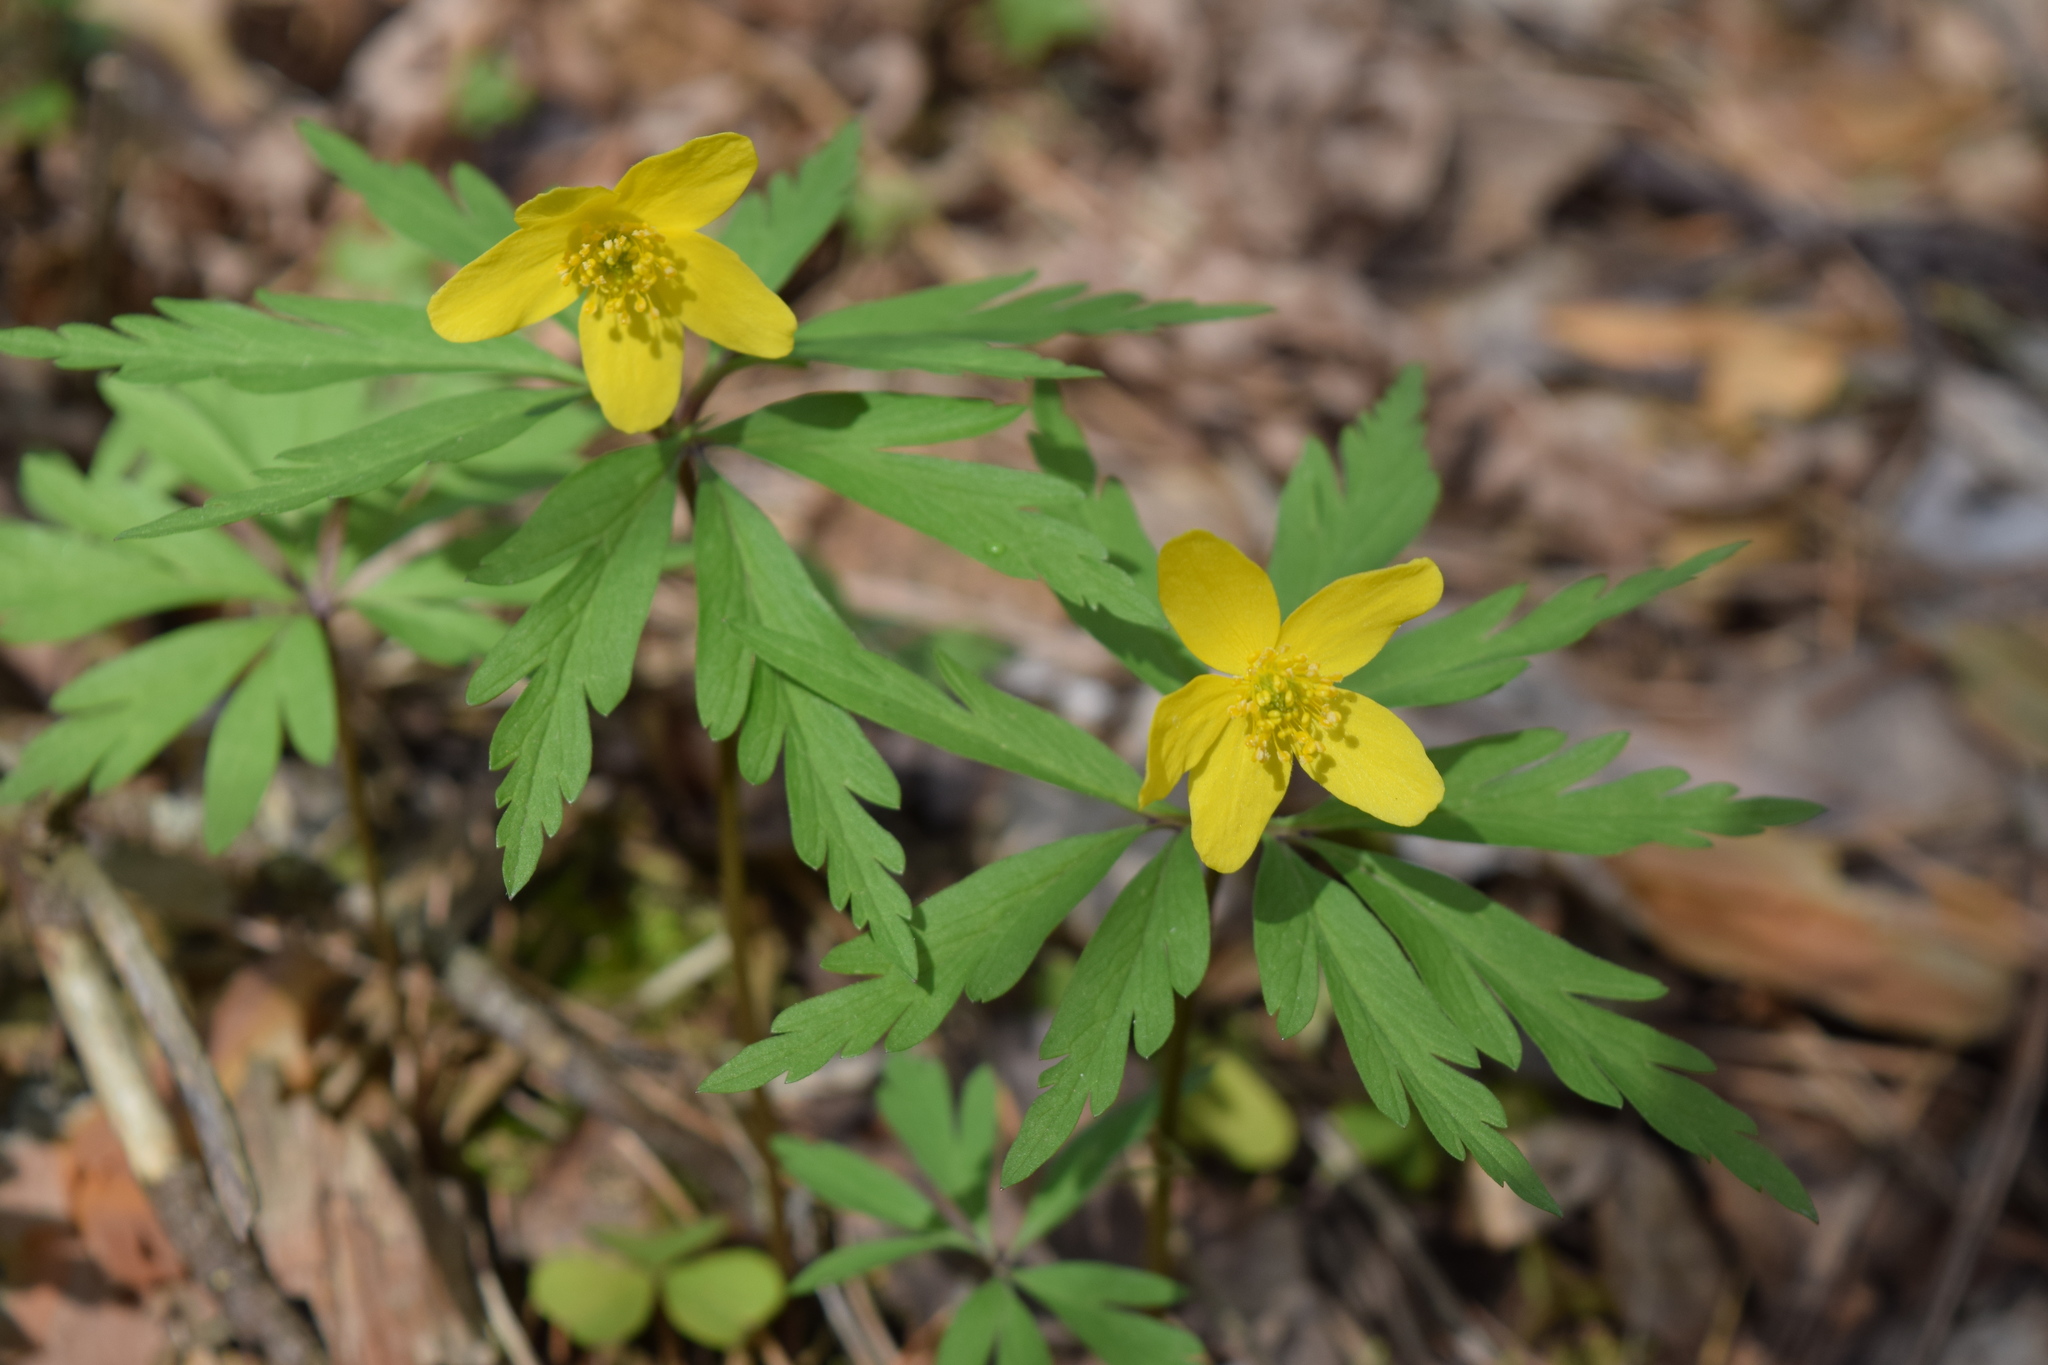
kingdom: Plantae
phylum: Tracheophyta
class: Magnoliopsida
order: Ranunculales
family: Ranunculaceae
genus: Anemone
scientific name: Anemone ranunculoides
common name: Yellow anemone
